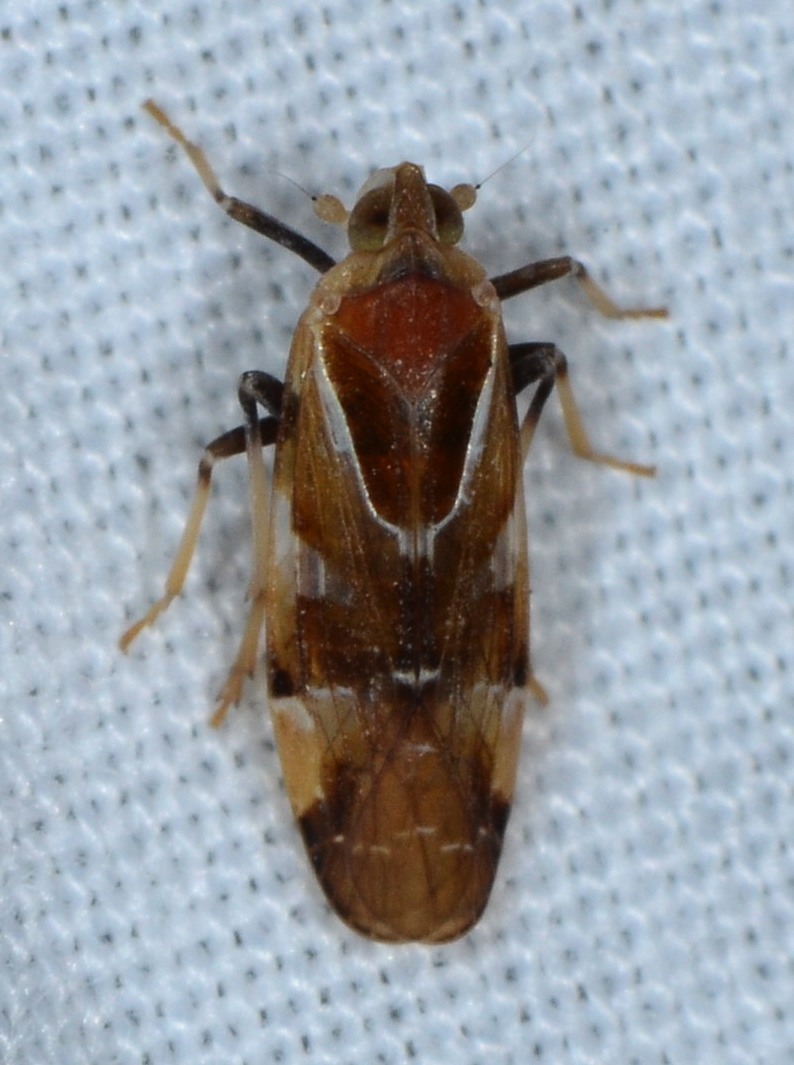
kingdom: Animalia
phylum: Arthropoda
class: Insecta
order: Hemiptera
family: Achilidae
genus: Juniperthia
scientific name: Juniperthia producta
